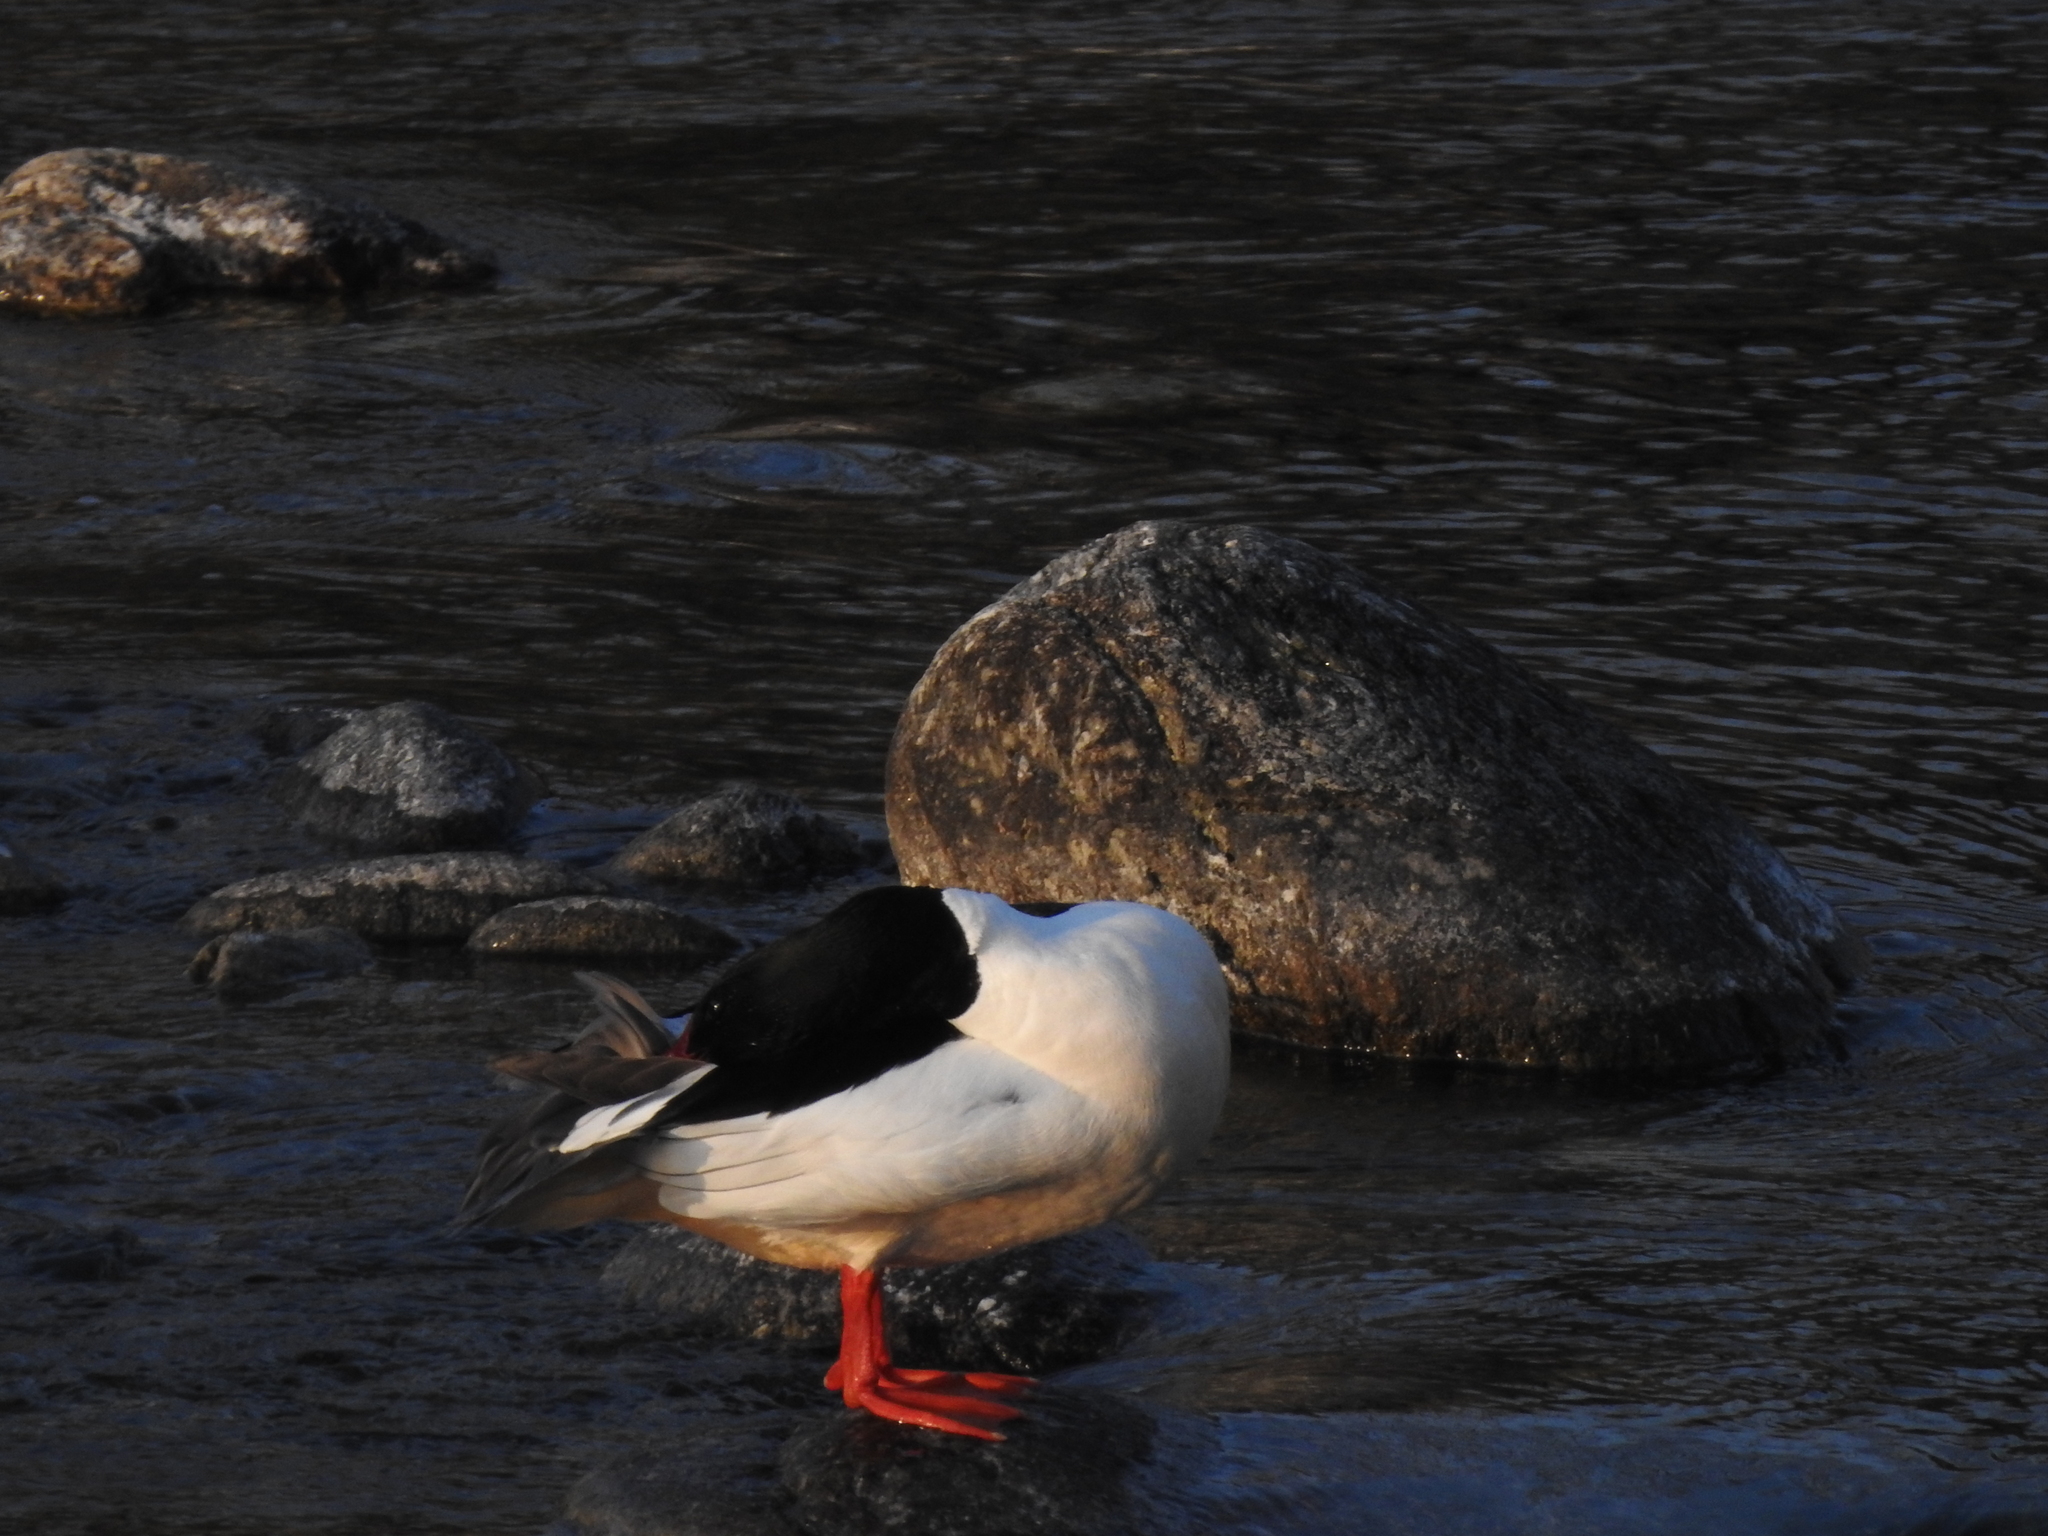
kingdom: Animalia
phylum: Chordata
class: Aves
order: Anseriformes
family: Anatidae
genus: Mergus
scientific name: Mergus merganser
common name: Common merganser
